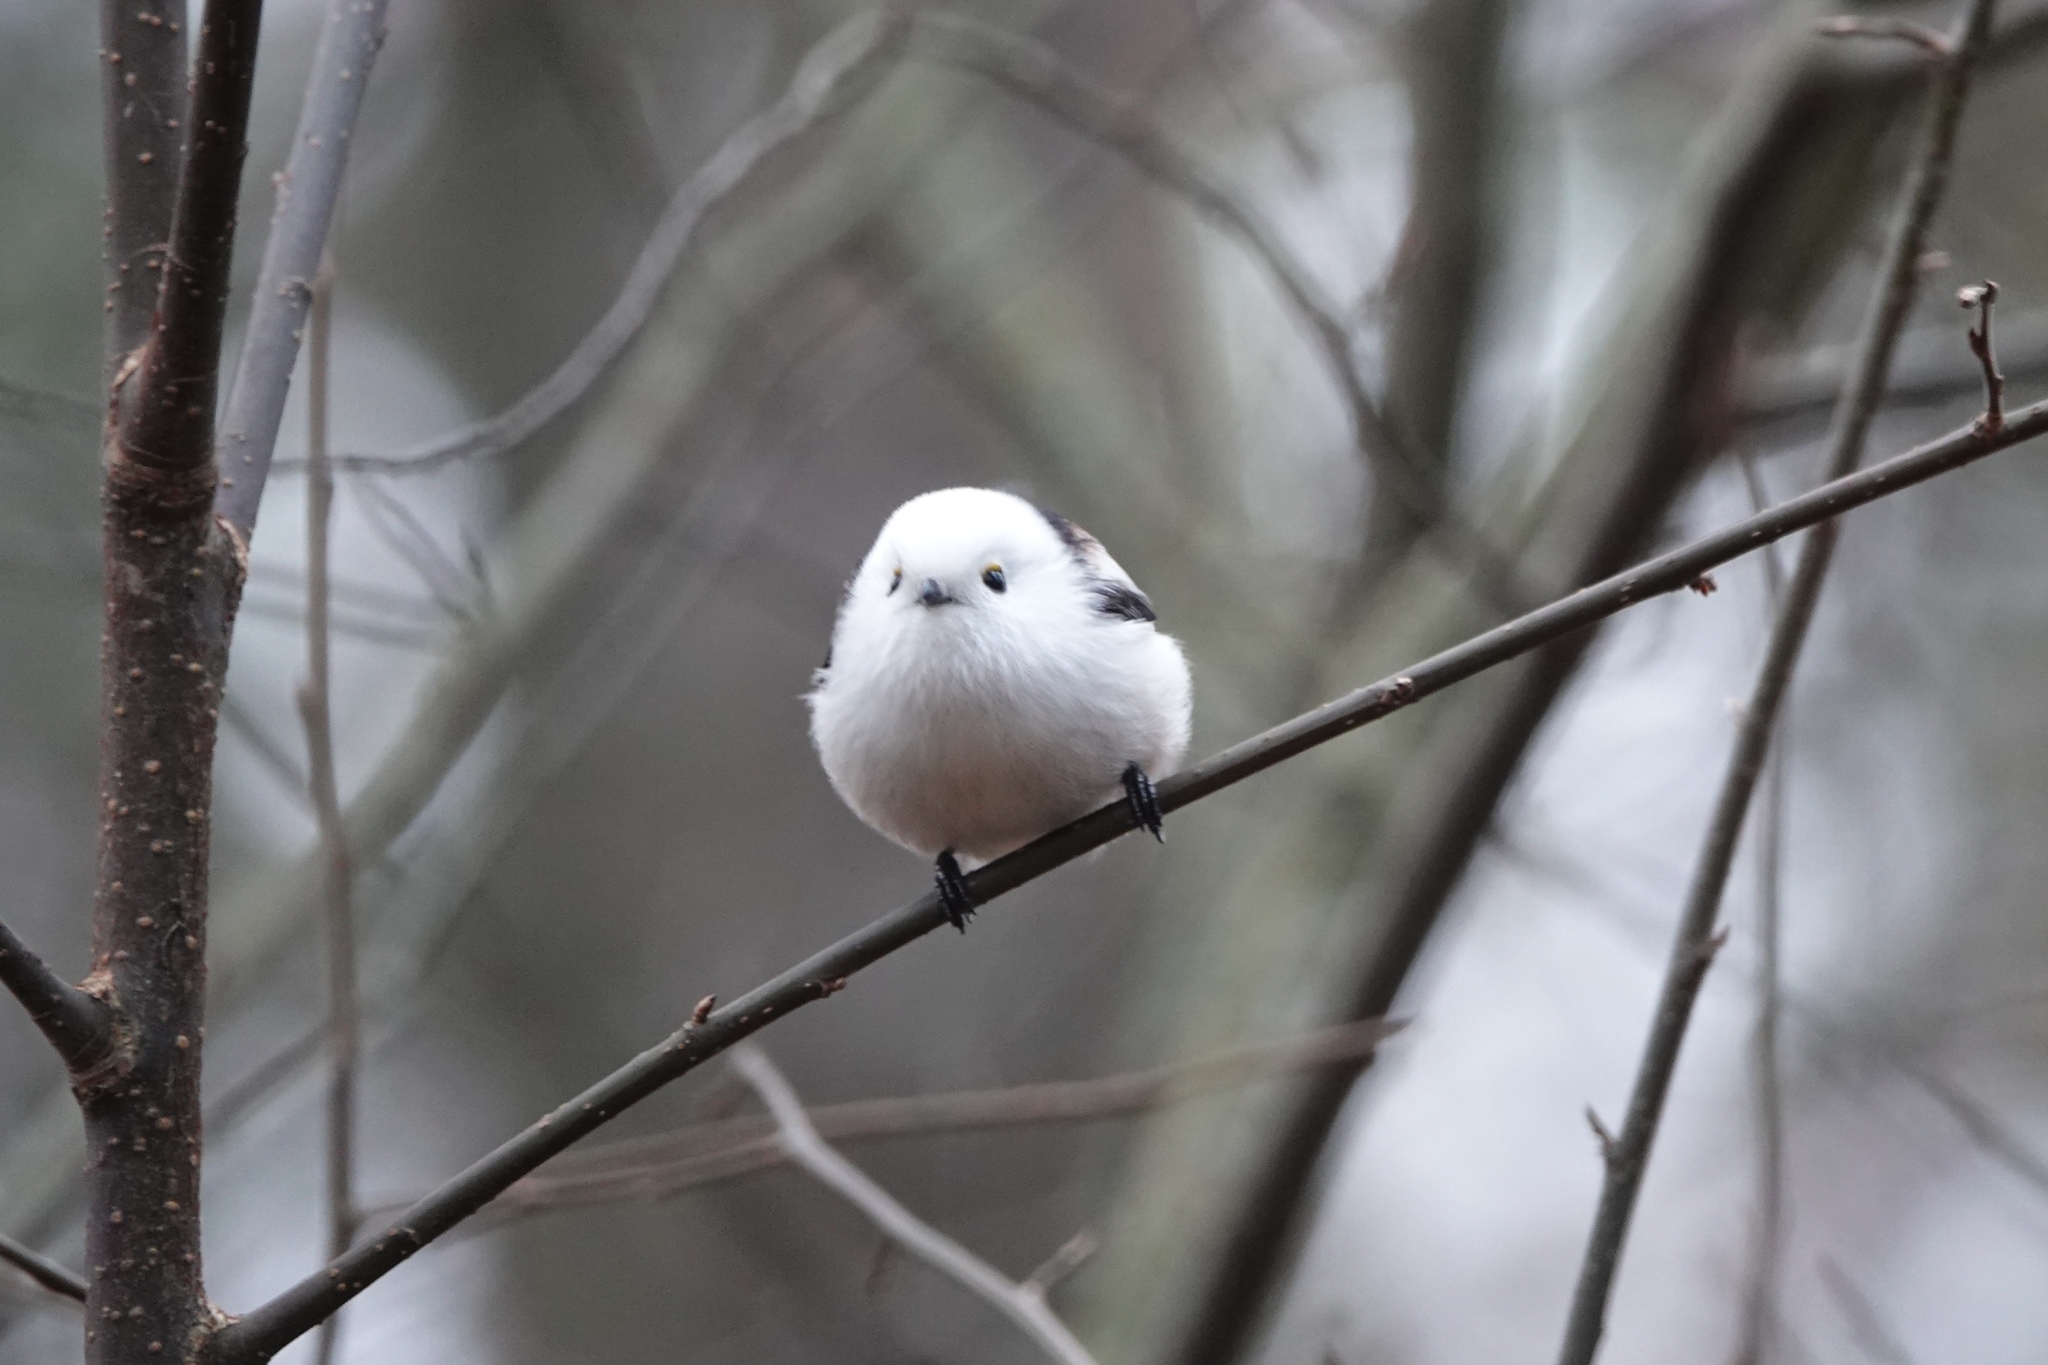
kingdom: Animalia
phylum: Chordata
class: Aves
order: Passeriformes
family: Aegithalidae
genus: Aegithalos
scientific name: Aegithalos caudatus
